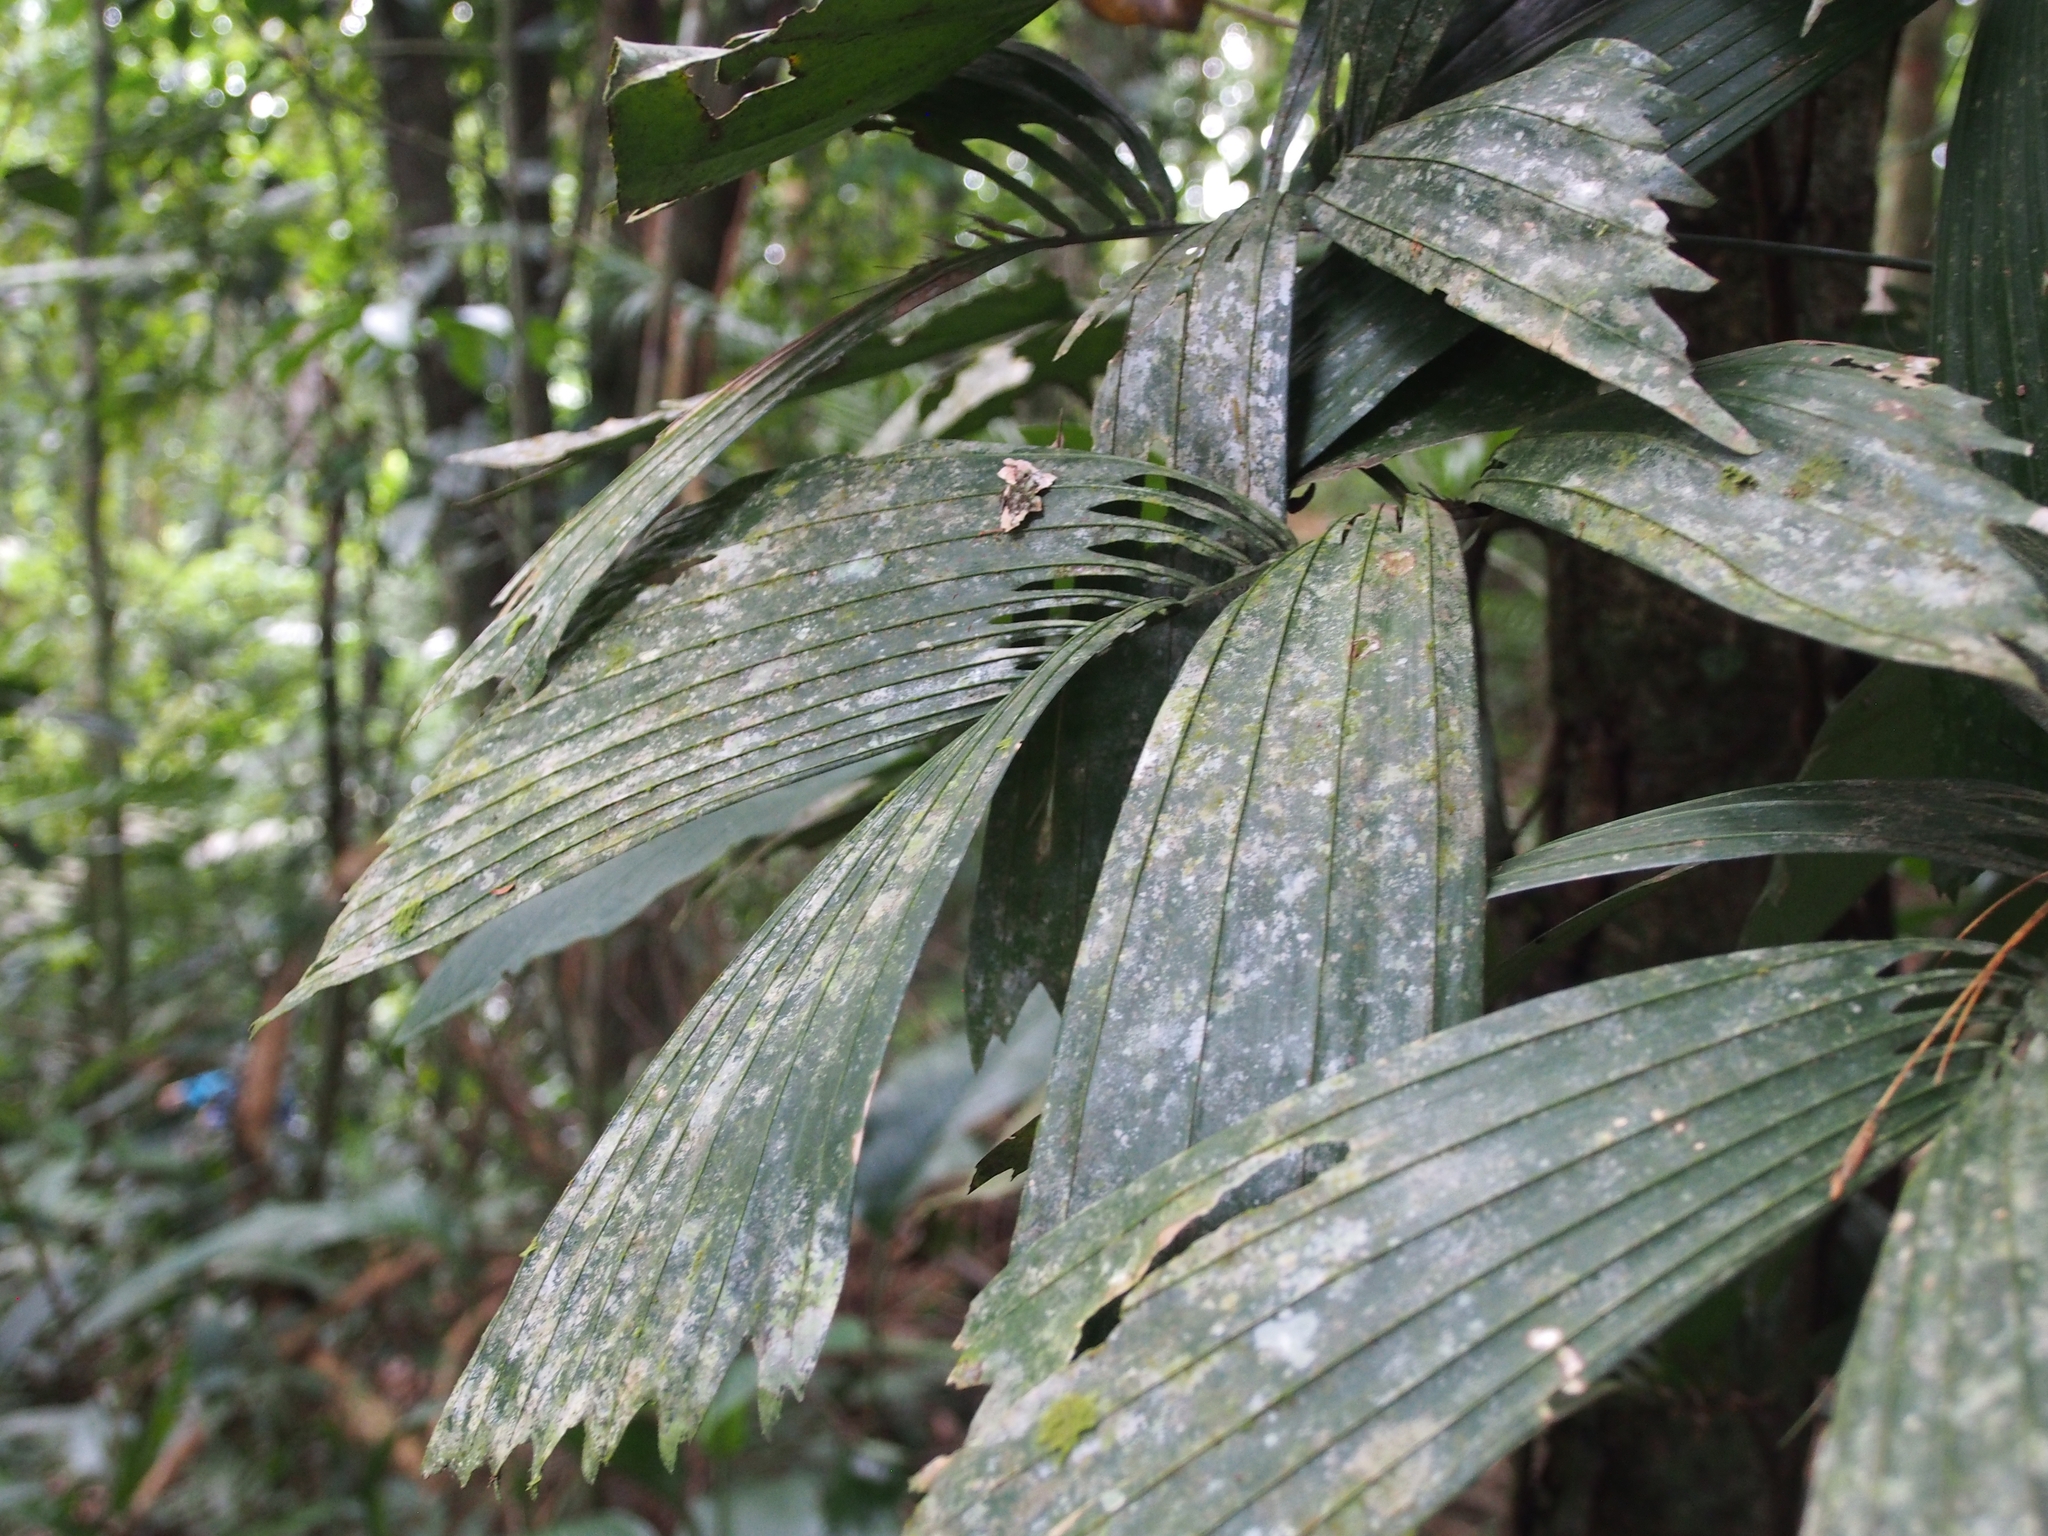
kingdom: Plantae
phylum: Tracheophyta
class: Liliopsida
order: Arecales
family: Arecaceae
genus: Reinhardtia
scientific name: Reinhardtia gracilis
